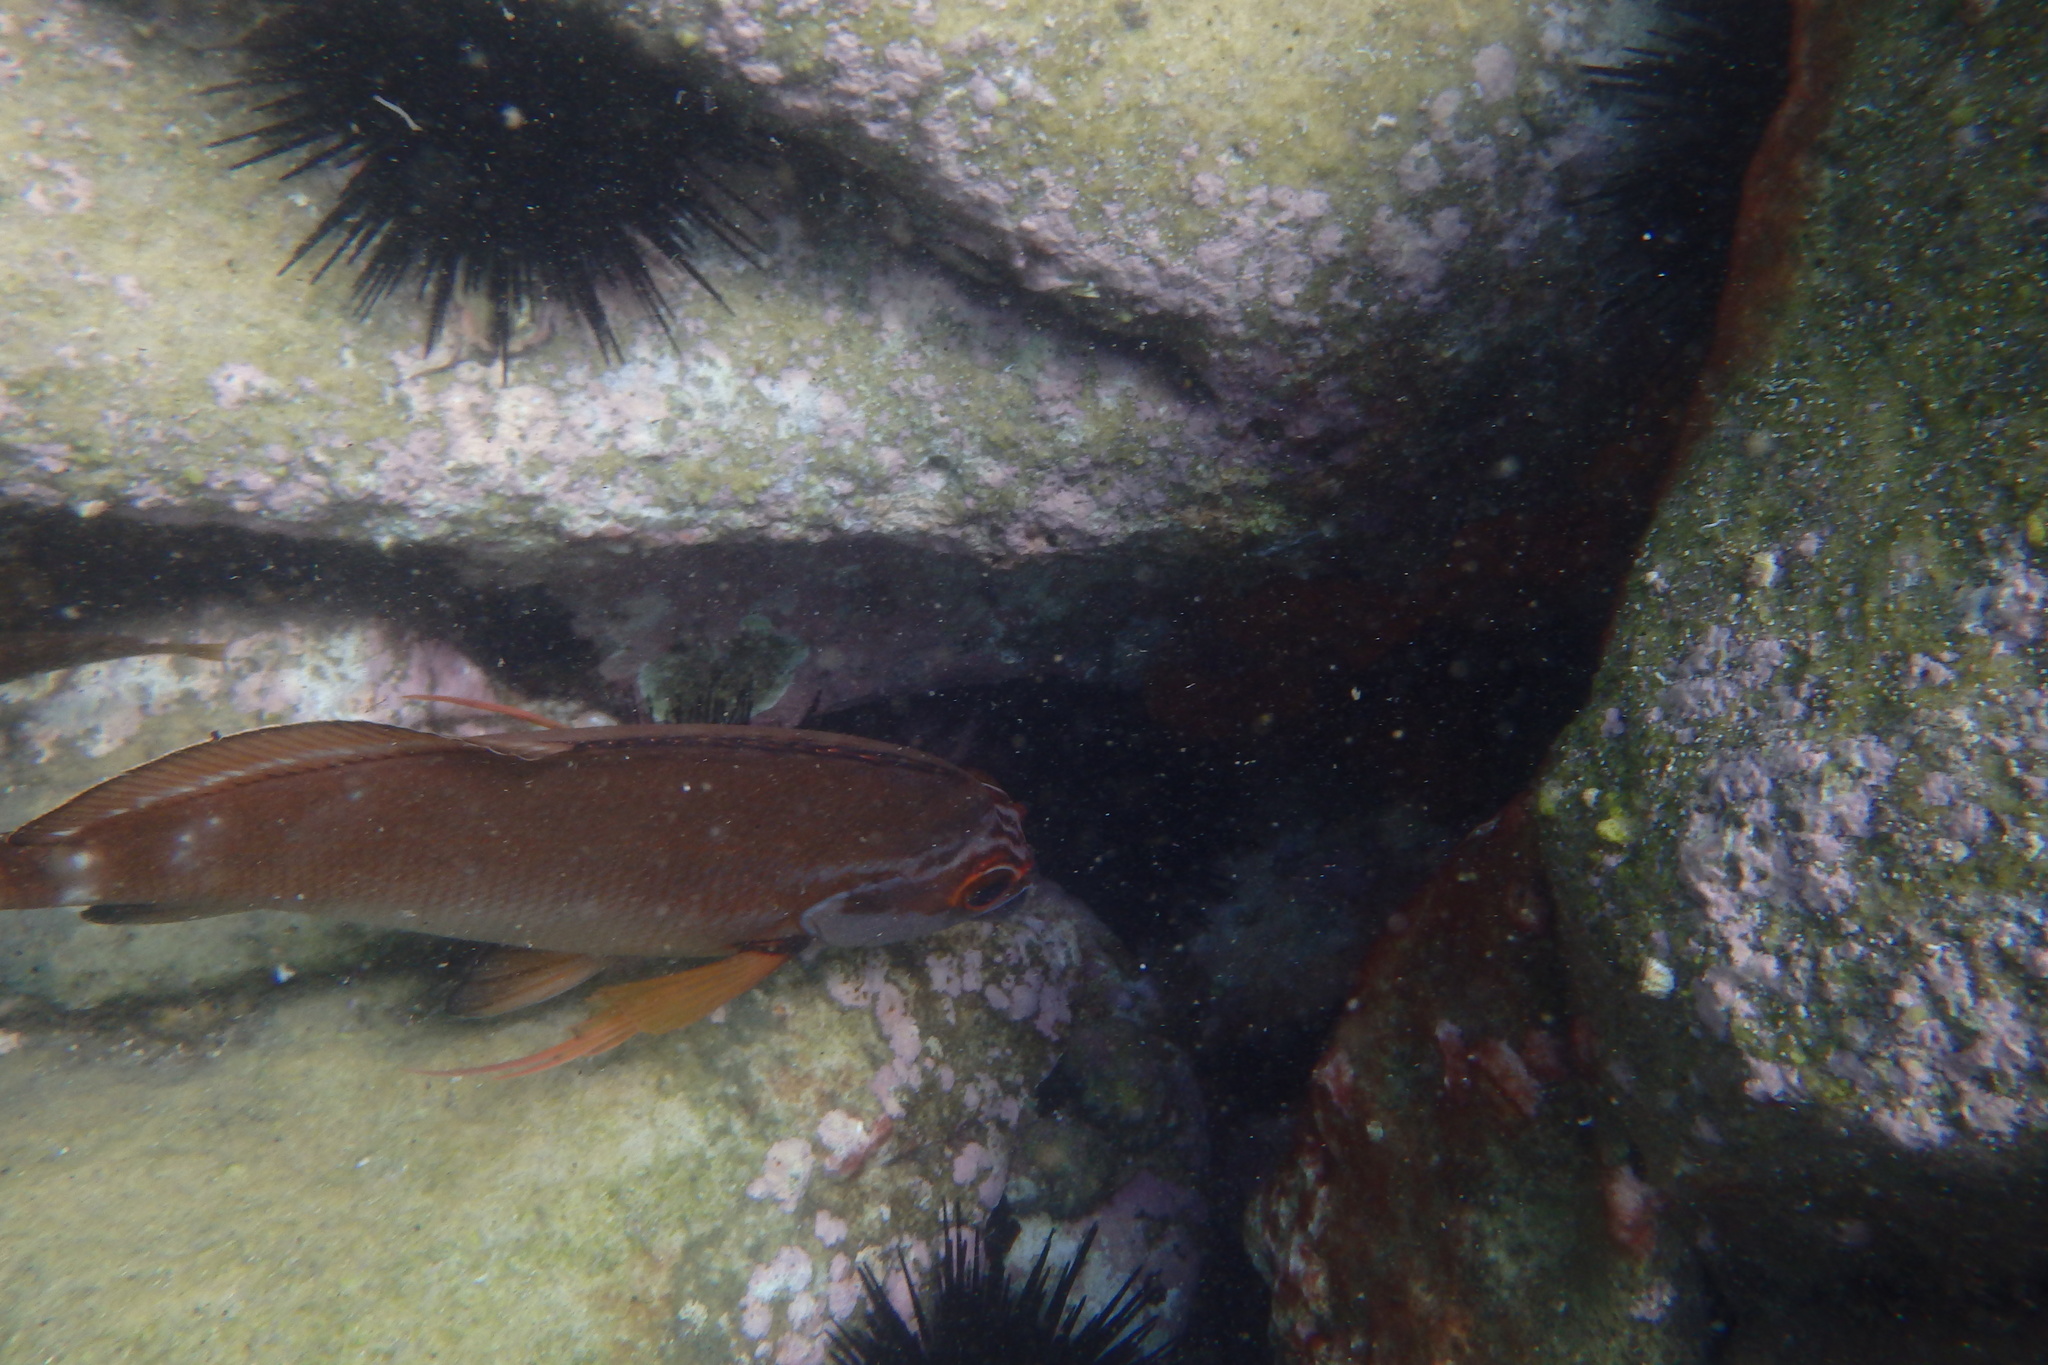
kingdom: Animalia
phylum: Chordata
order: Perciformes
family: Latridae
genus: Morwong
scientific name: Morwong fuscus
